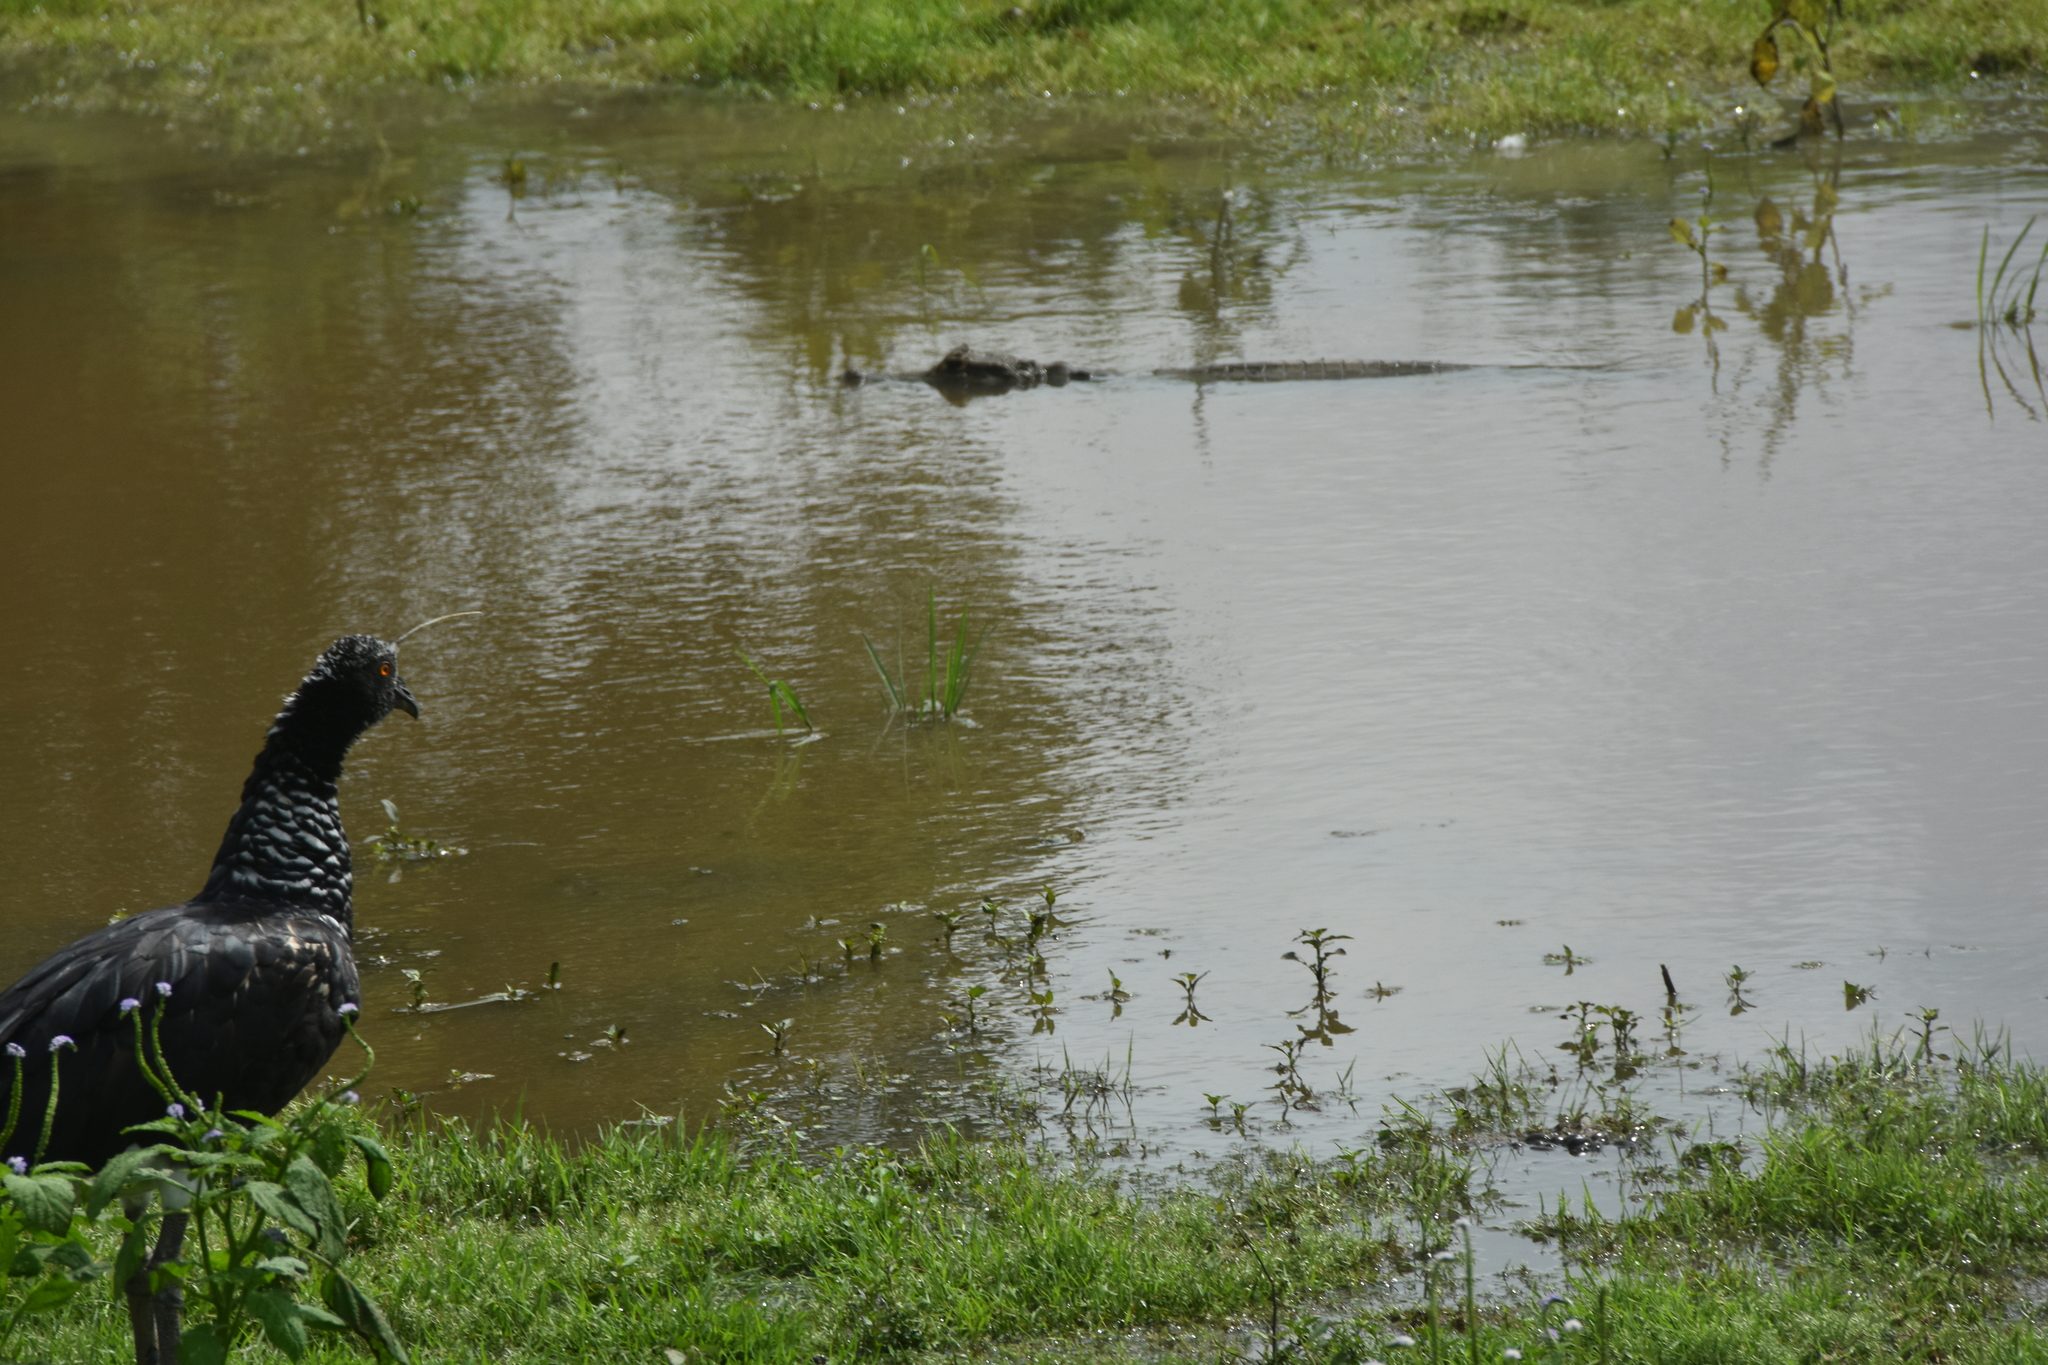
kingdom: Animalia
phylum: Chordata
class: Crocodylia
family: Alligatoridae
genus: Caiman
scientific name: Caiman crocodilus
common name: Common caiman
